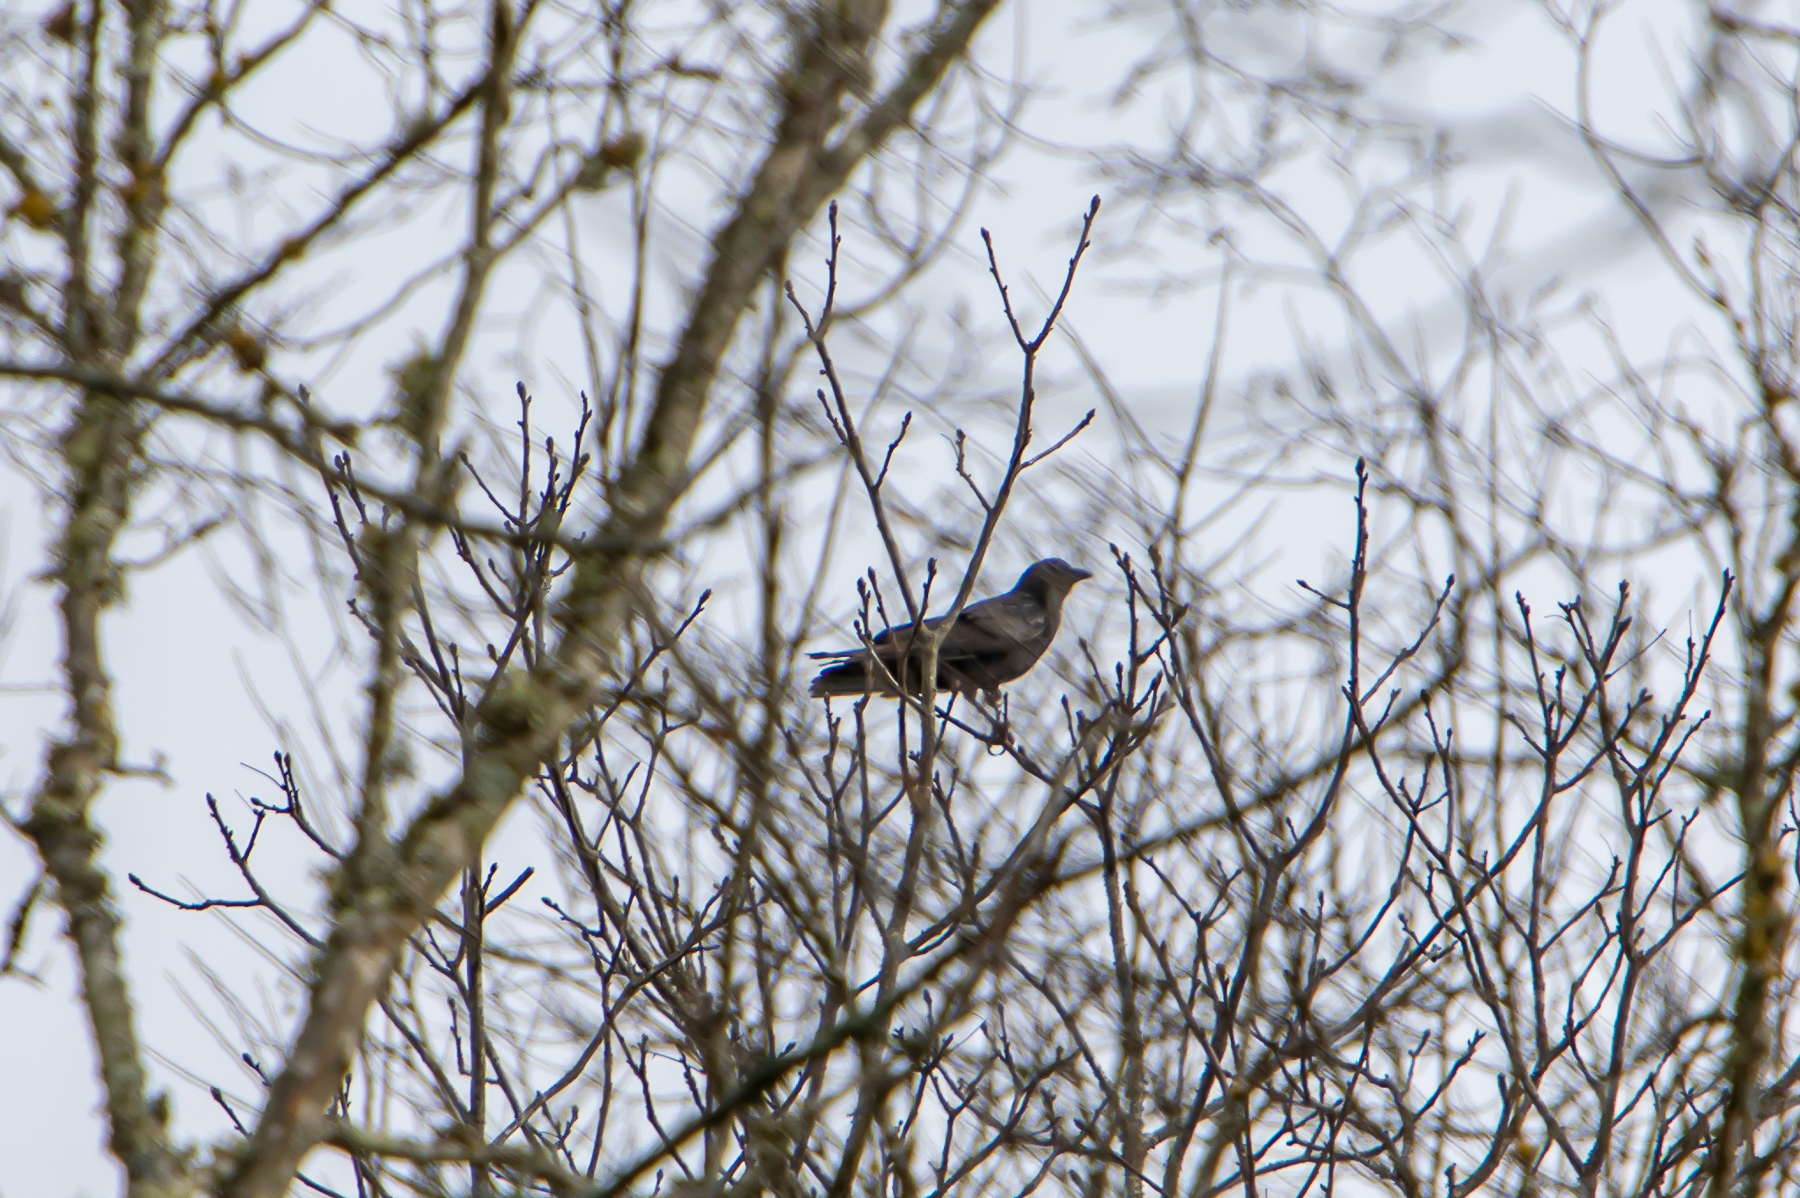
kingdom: Animalia
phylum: Chordata
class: Aves
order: Passeriformes
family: Corvidae
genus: Corvus
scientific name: Corvus brachyrhynchos
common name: American crow
